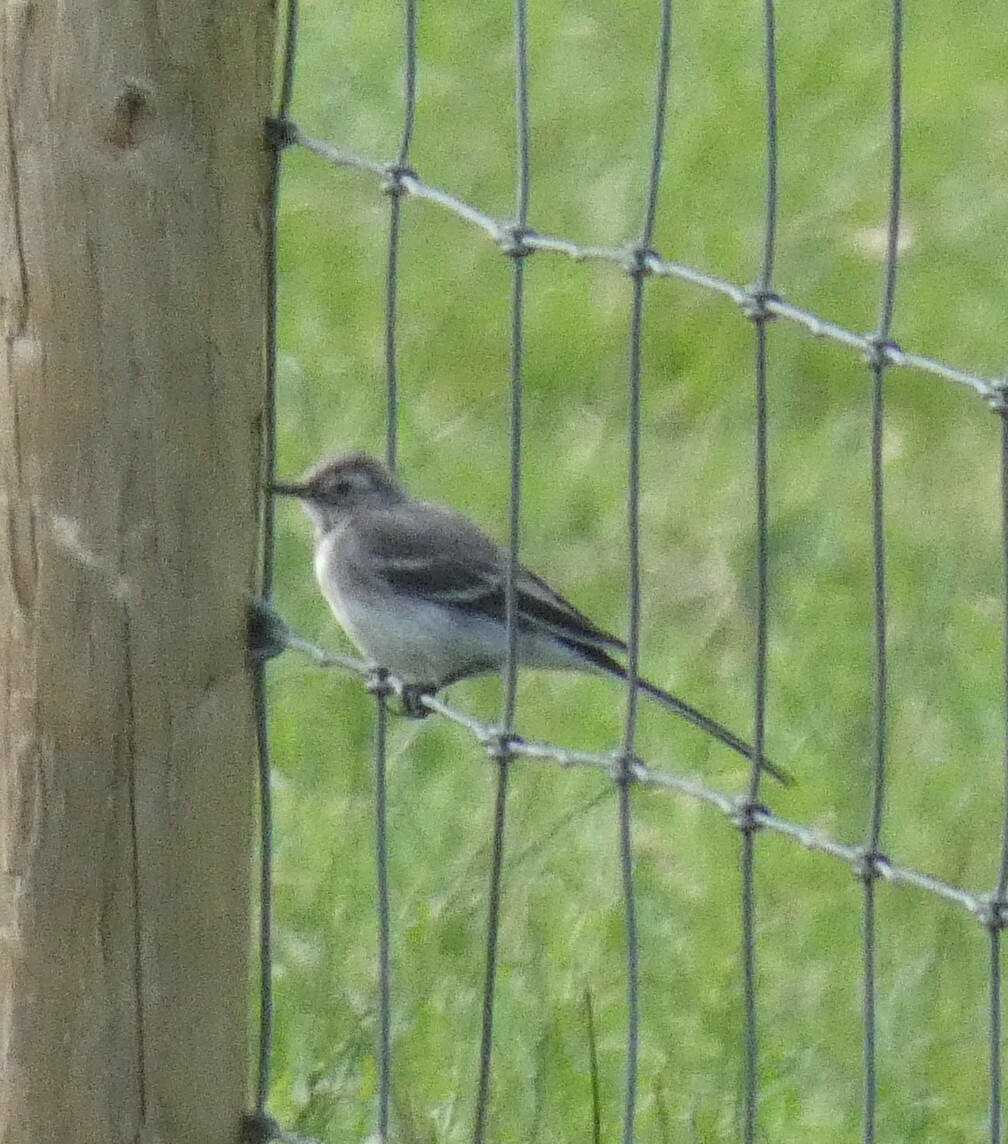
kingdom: Animalia
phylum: Chordata
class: Aves
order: Passeriformes
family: Motacillidae
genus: Motacilla
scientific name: Motacilla alba
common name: White wagtail
